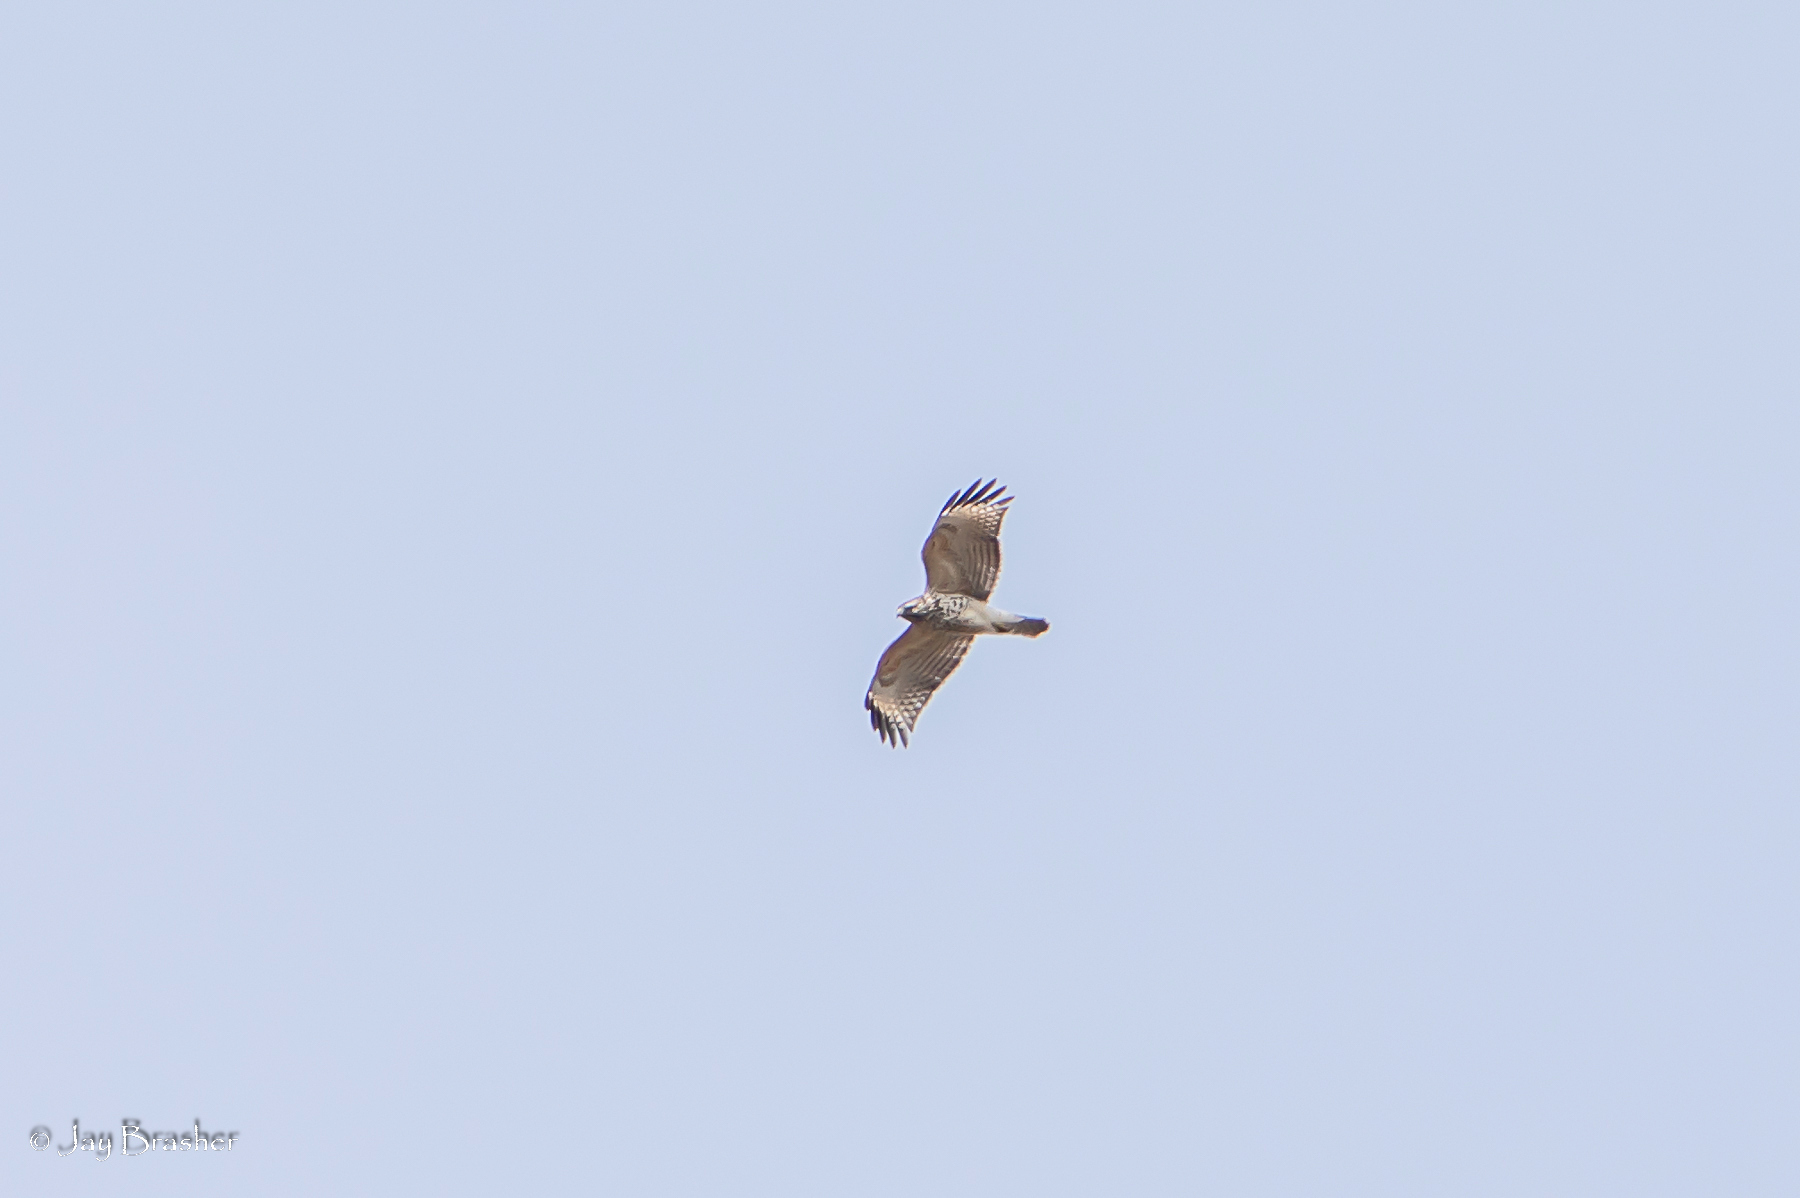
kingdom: Animalia
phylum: Chordata
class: Aves
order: Accipitriformes
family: Accipitridae
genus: Buteo
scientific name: Buteo lineatus
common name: Red-shouldered hawk
